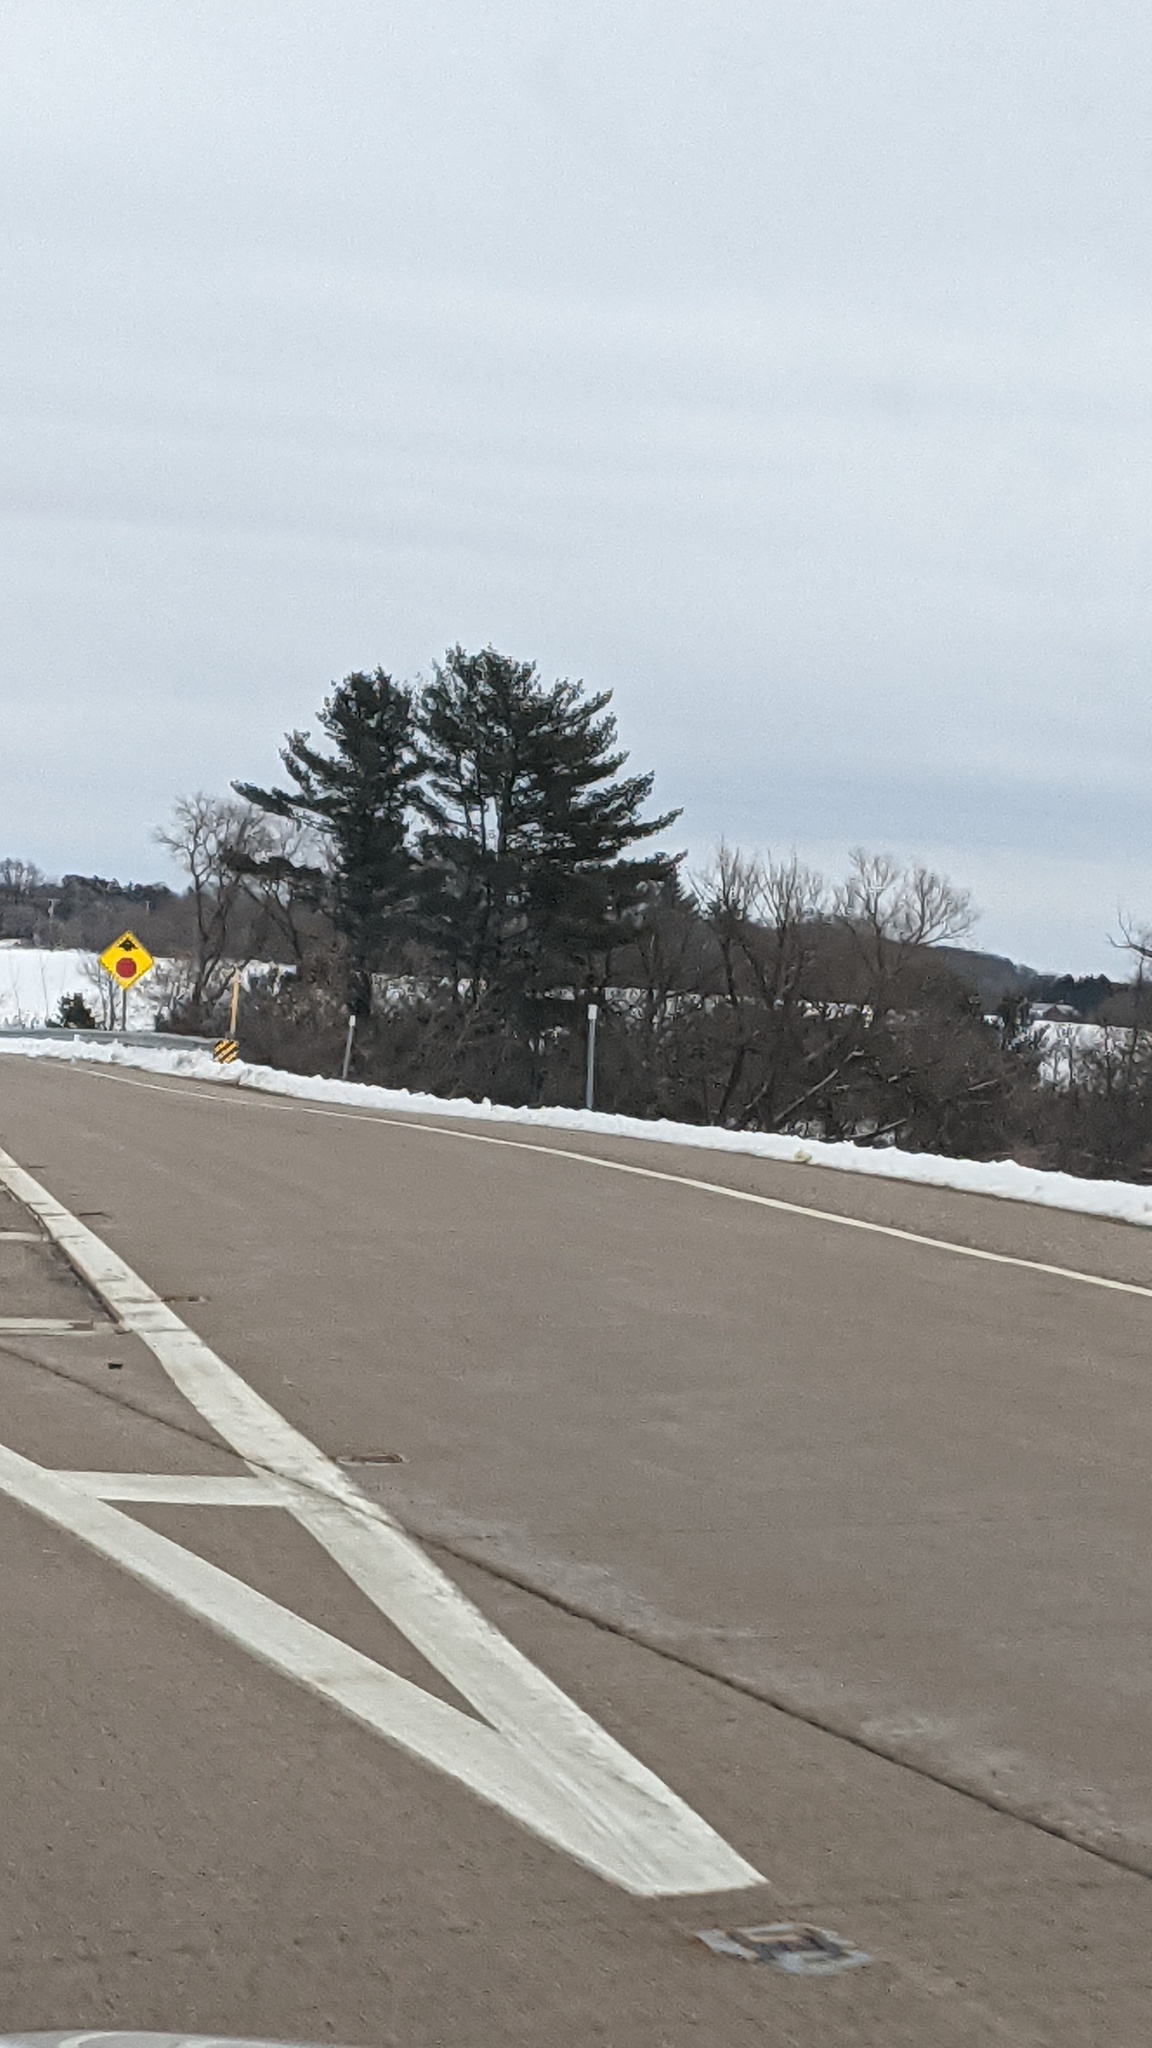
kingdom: Plantae
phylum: Tracheophyta
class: Pinopsida
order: Pinales
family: Pinaceae
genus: Pinus
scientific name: Pinus strobus
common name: Weymouth pine
